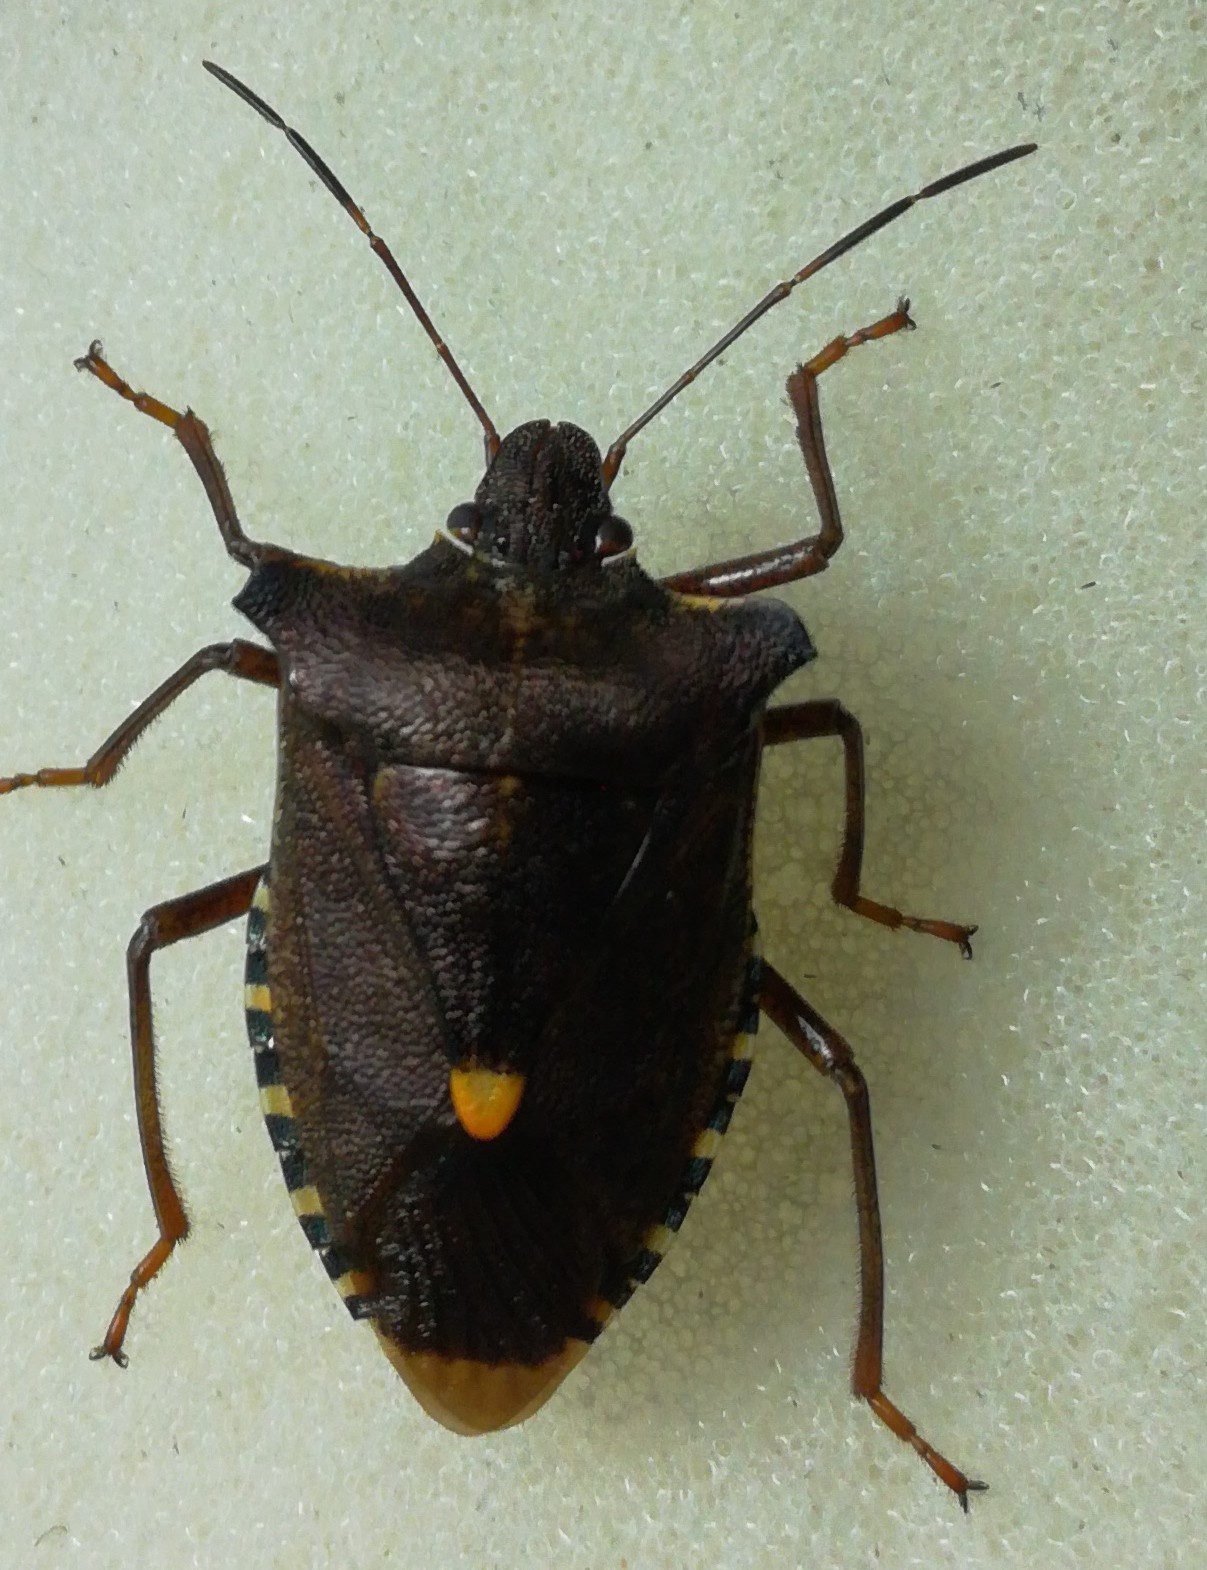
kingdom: Animalia
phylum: Arthropoda
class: Insecta
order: Hemiptera
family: Pentatomidae
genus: Pentatoma
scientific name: Pentatoma rufipes
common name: Forest bug
